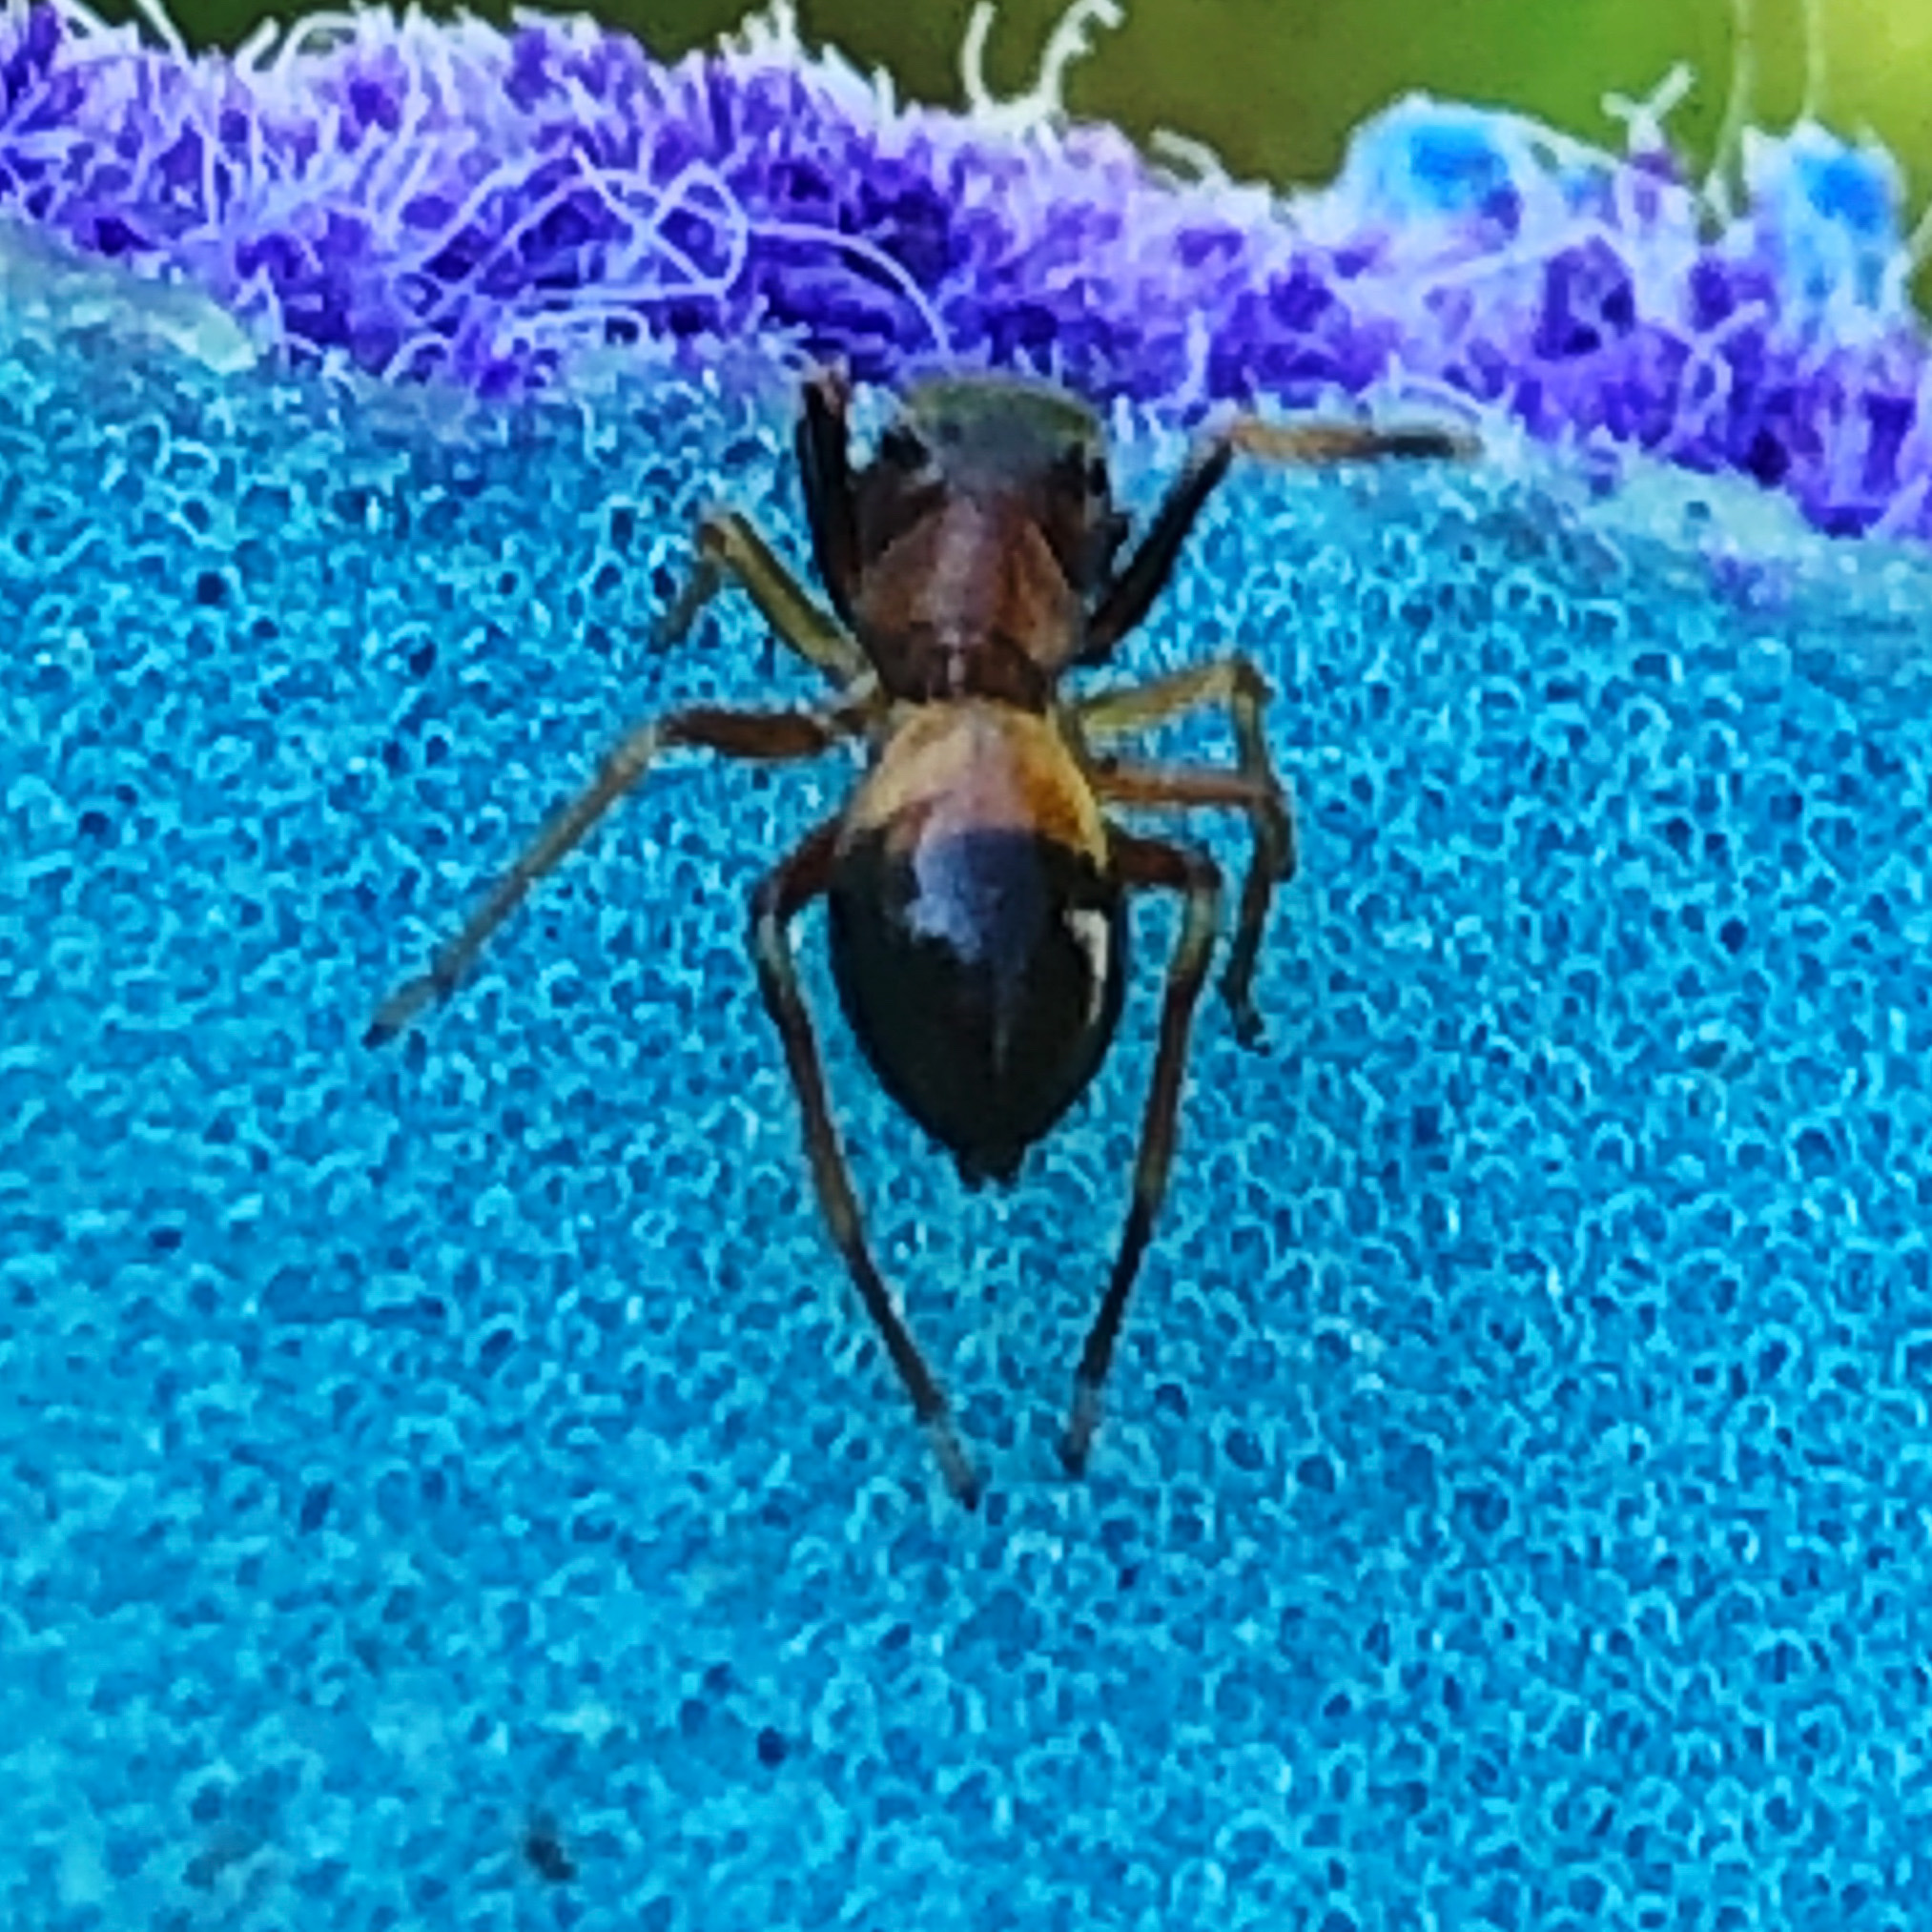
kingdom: Animalia
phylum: Arthropoda
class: Arachnida
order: Araneae
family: Salticidae
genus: Myrmarachne
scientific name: Myrmarachne formicaria
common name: Ant mimic jumping spider
